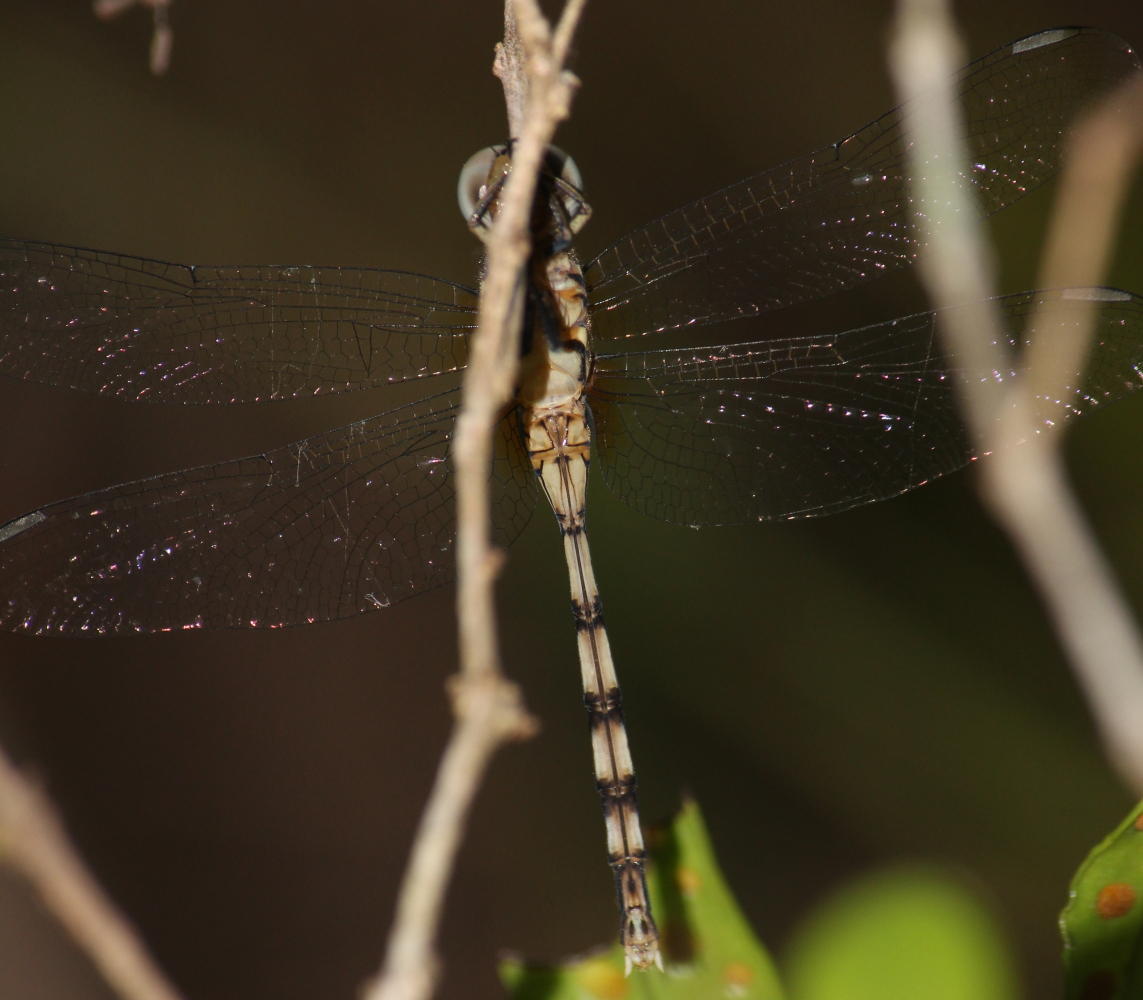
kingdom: Animalia
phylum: Arthropoda
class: Insecta
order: Odonata
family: Libellulidae
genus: Orthetrum
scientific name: Orthetrum stemmale
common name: Bold skimmer
